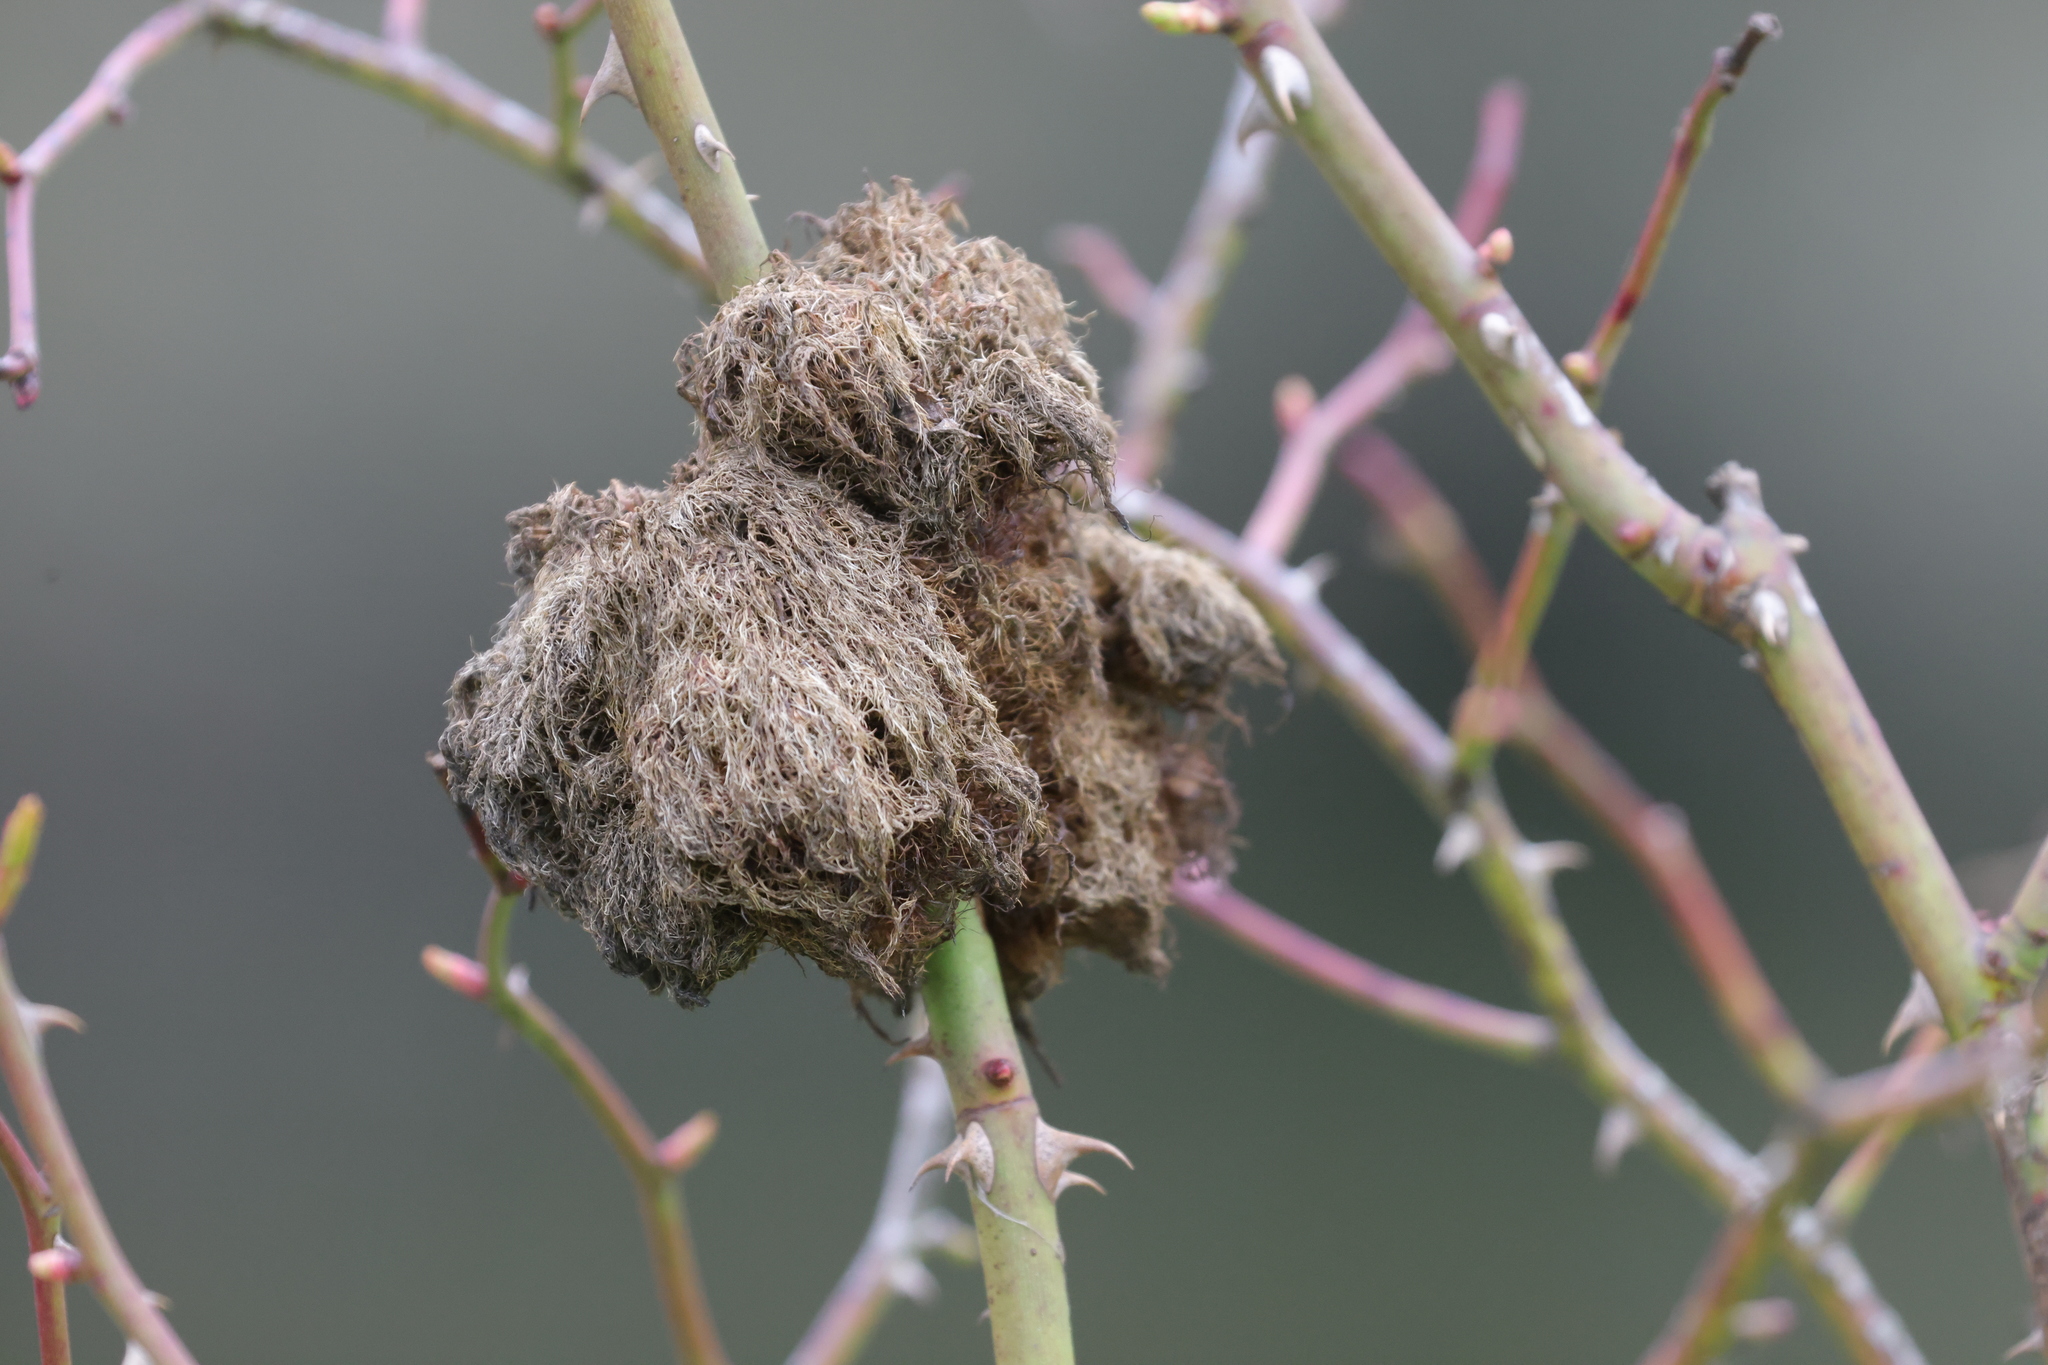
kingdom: Animalia
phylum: Arthropoda
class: Insecta
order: Hymenoptera
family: Cynipidae
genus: Diplolepis
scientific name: Diplolepis rosae
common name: Bedeguar gall
